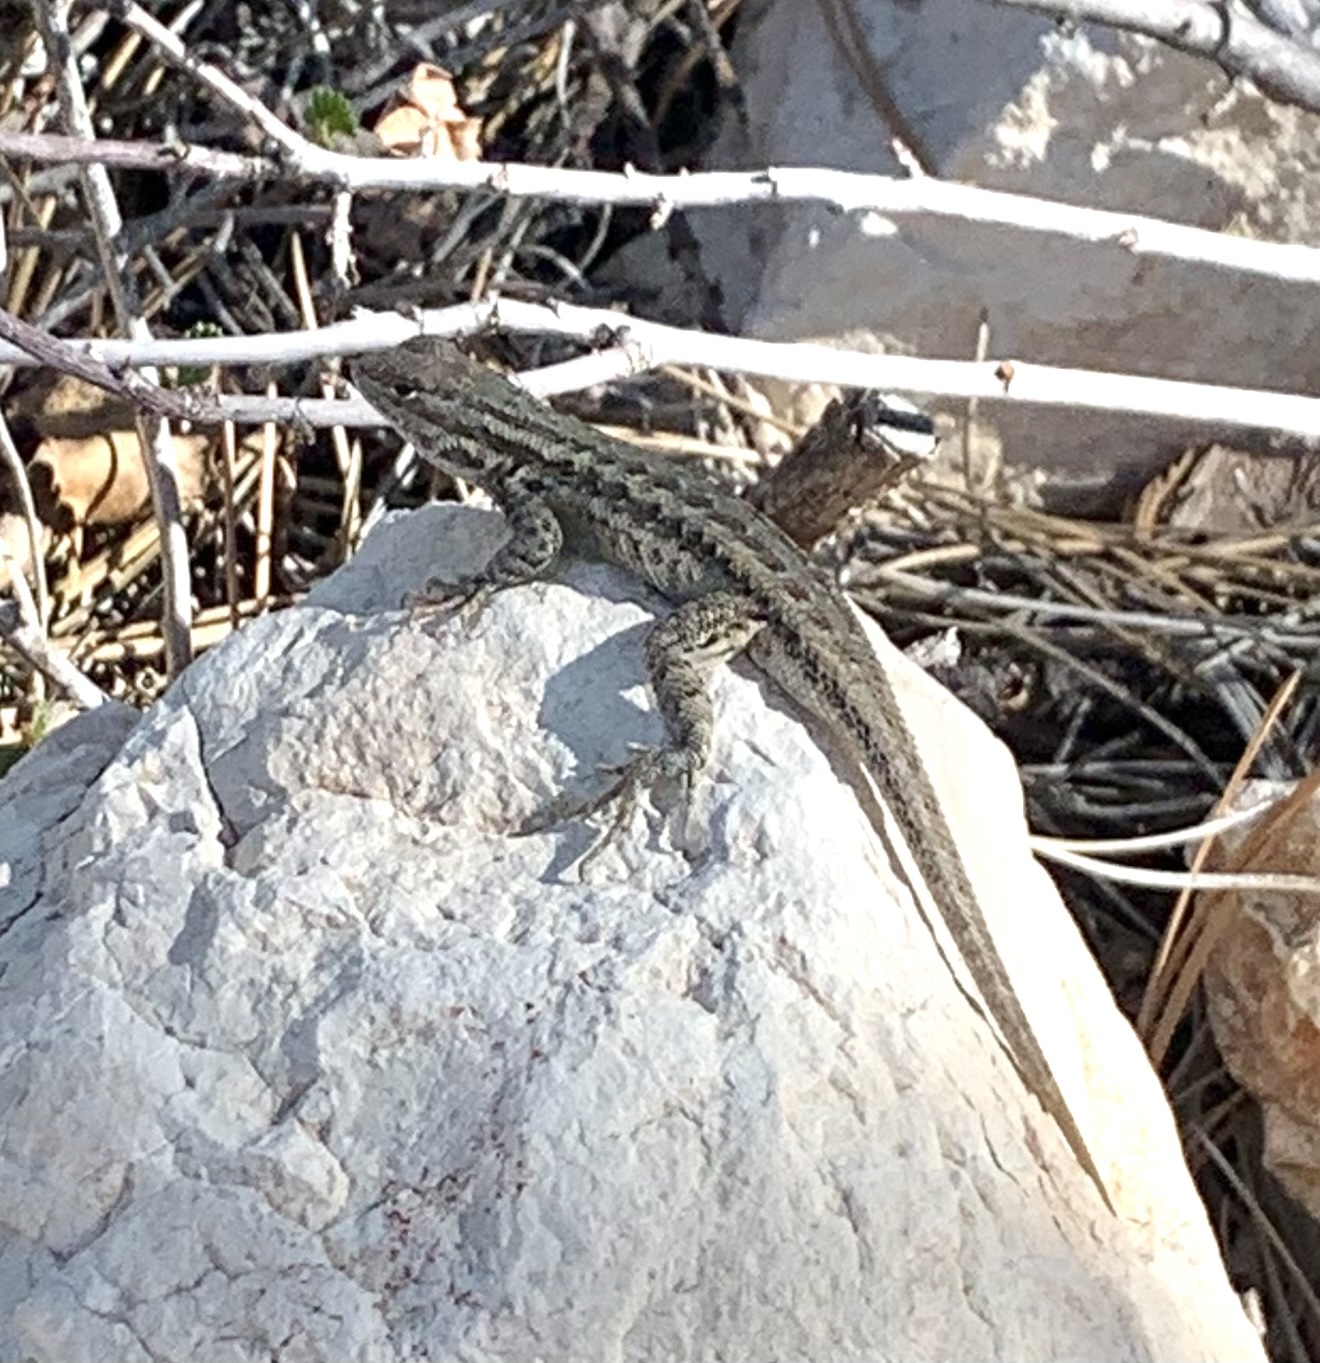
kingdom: Animalia
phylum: Chordata
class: Squamata
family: Phrynosomatidae
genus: Sceloporus
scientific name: Sceloporus graciosus
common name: Sagebrush lizard
